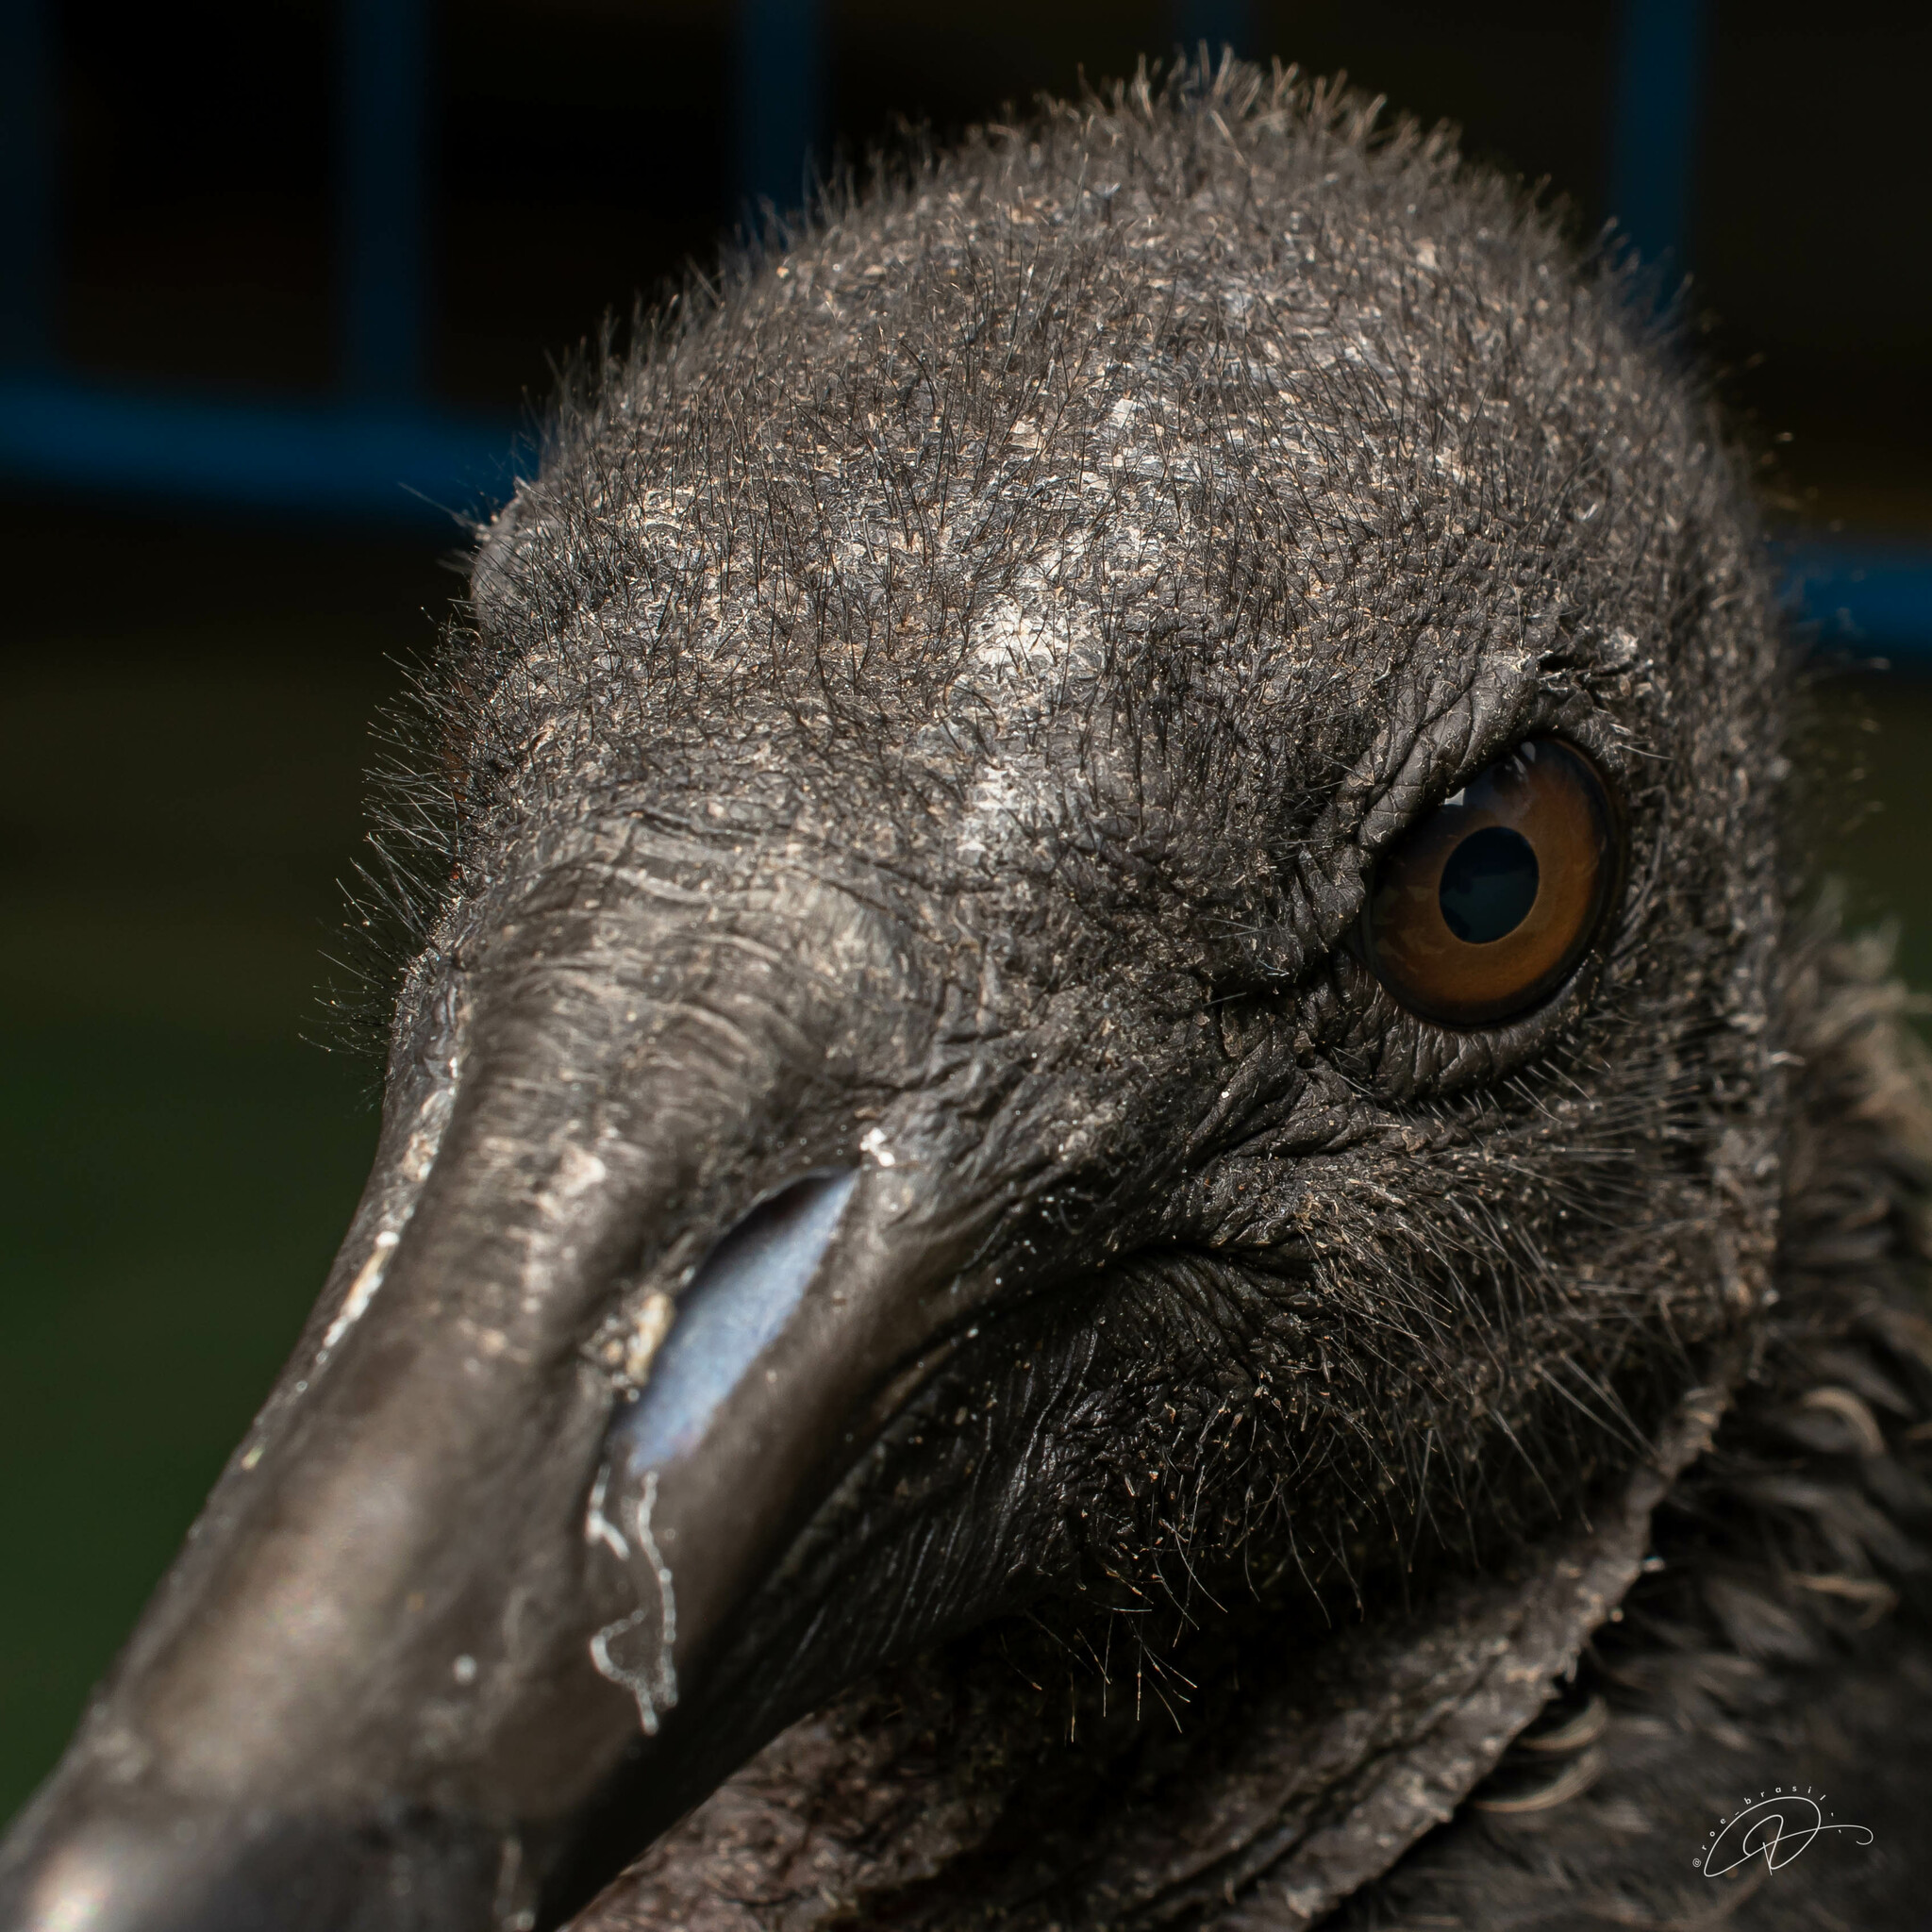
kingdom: Animalia
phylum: Chordata
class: Aves
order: Accipitriformes
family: Cathartidae
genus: Coragyps
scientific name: Coragyps atratus
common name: Black vulture
